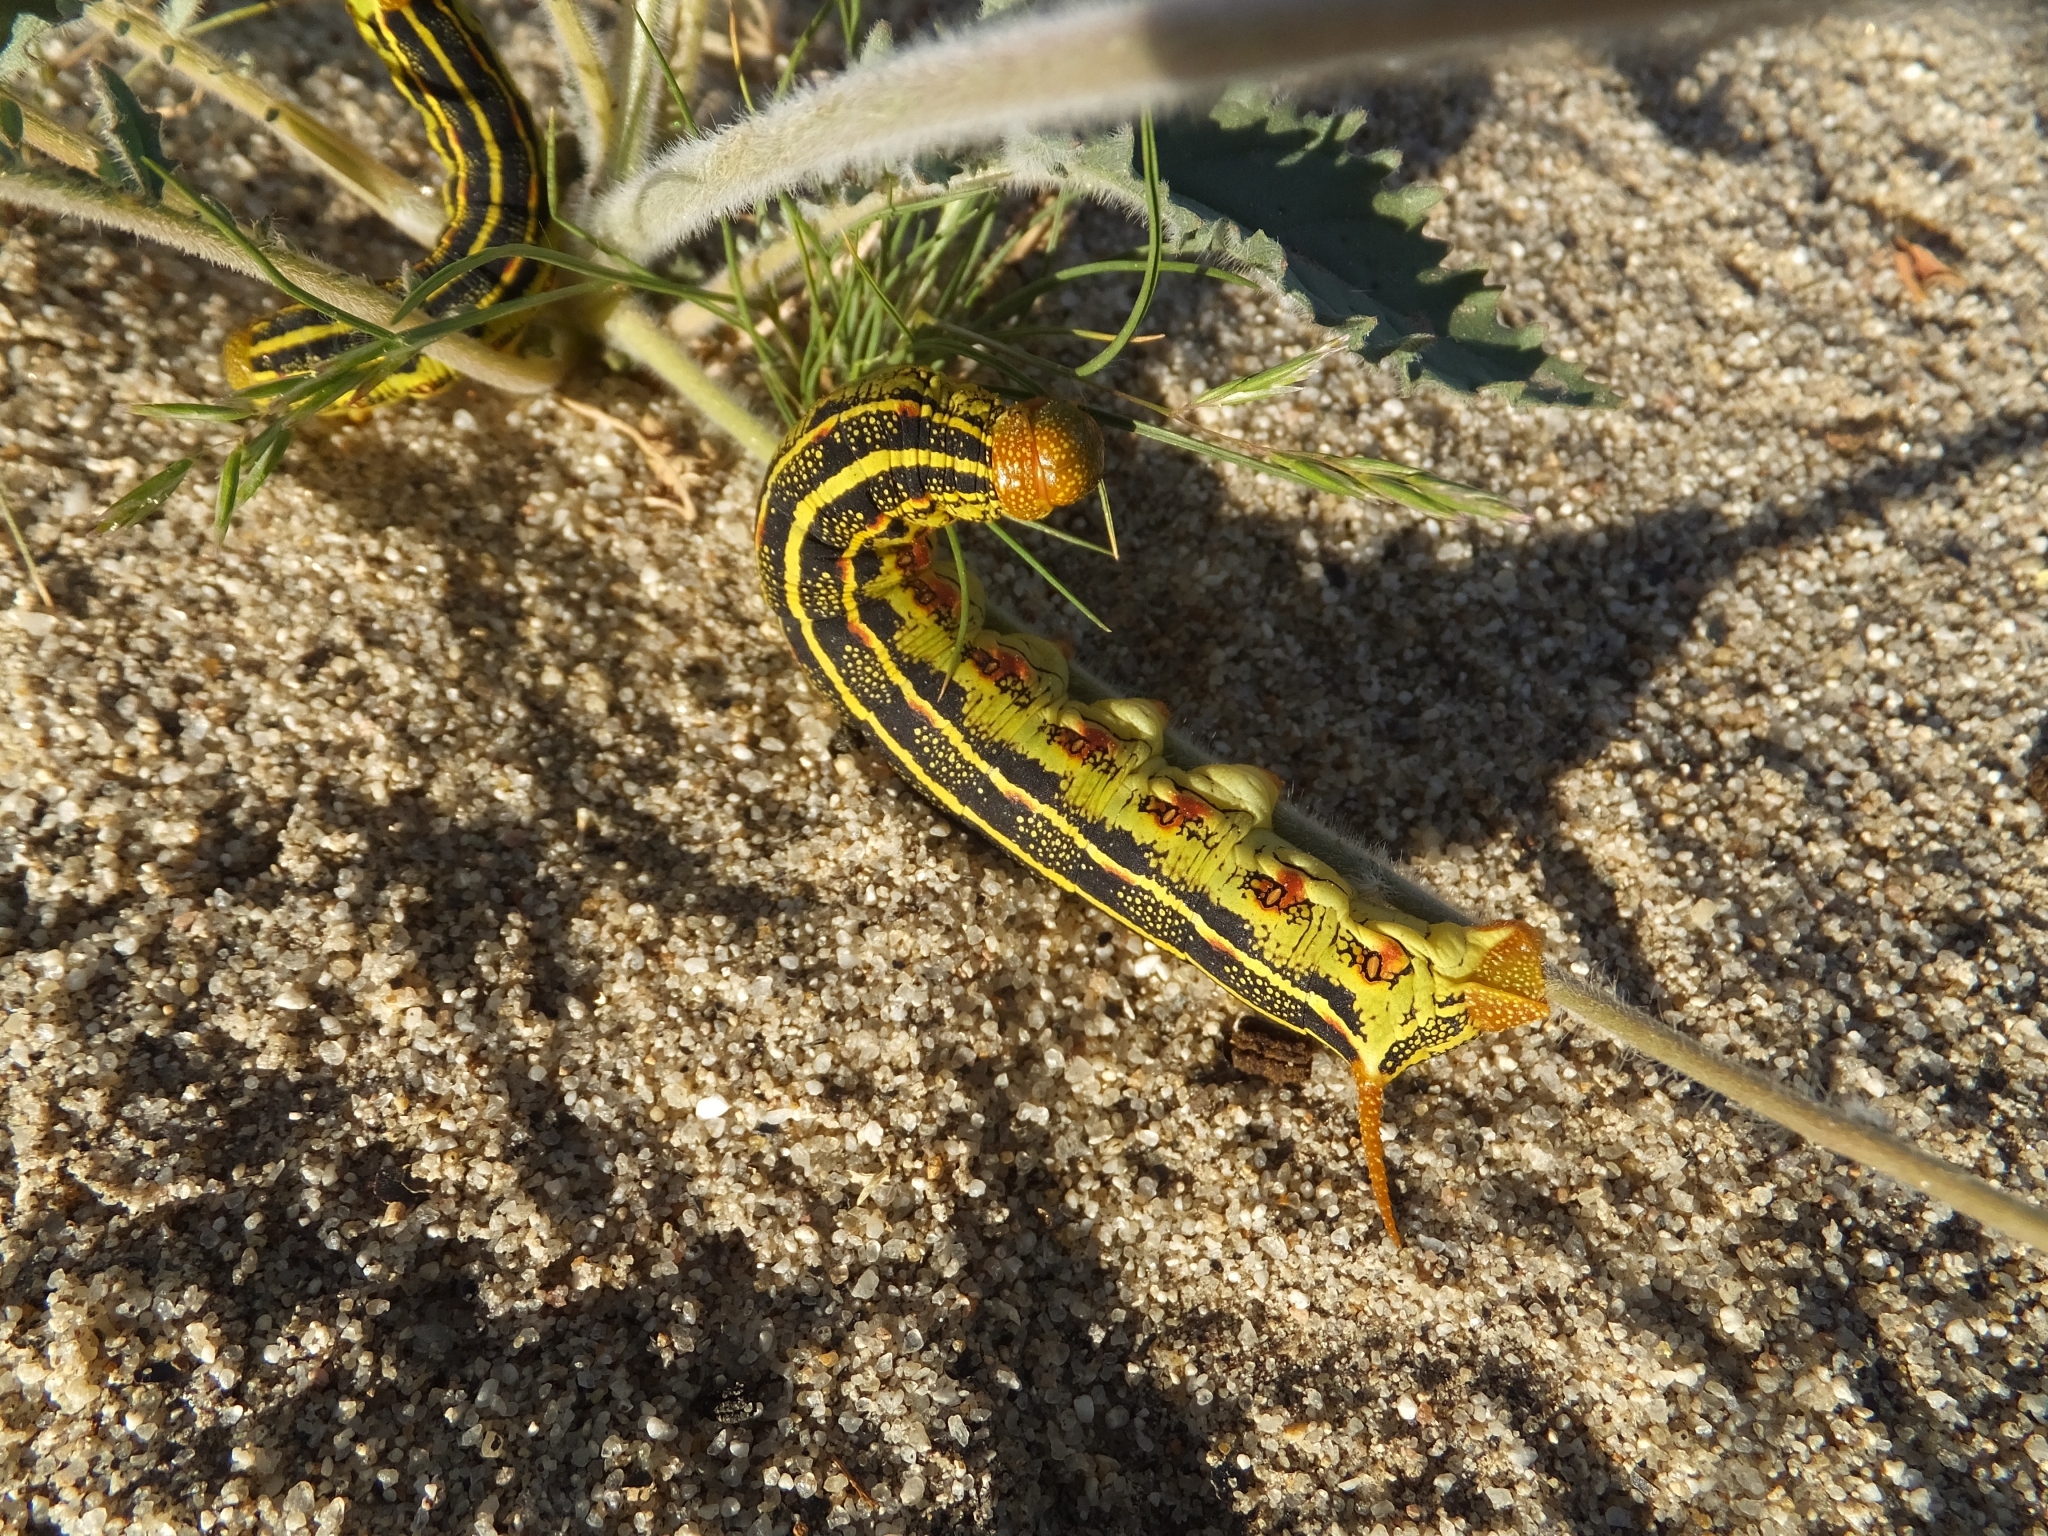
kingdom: Animalia
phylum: Arthropoda
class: Insecta
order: Lepidoptera
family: Sphingidae
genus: Hyles
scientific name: Hyles lineata
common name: White-lined sphinx
